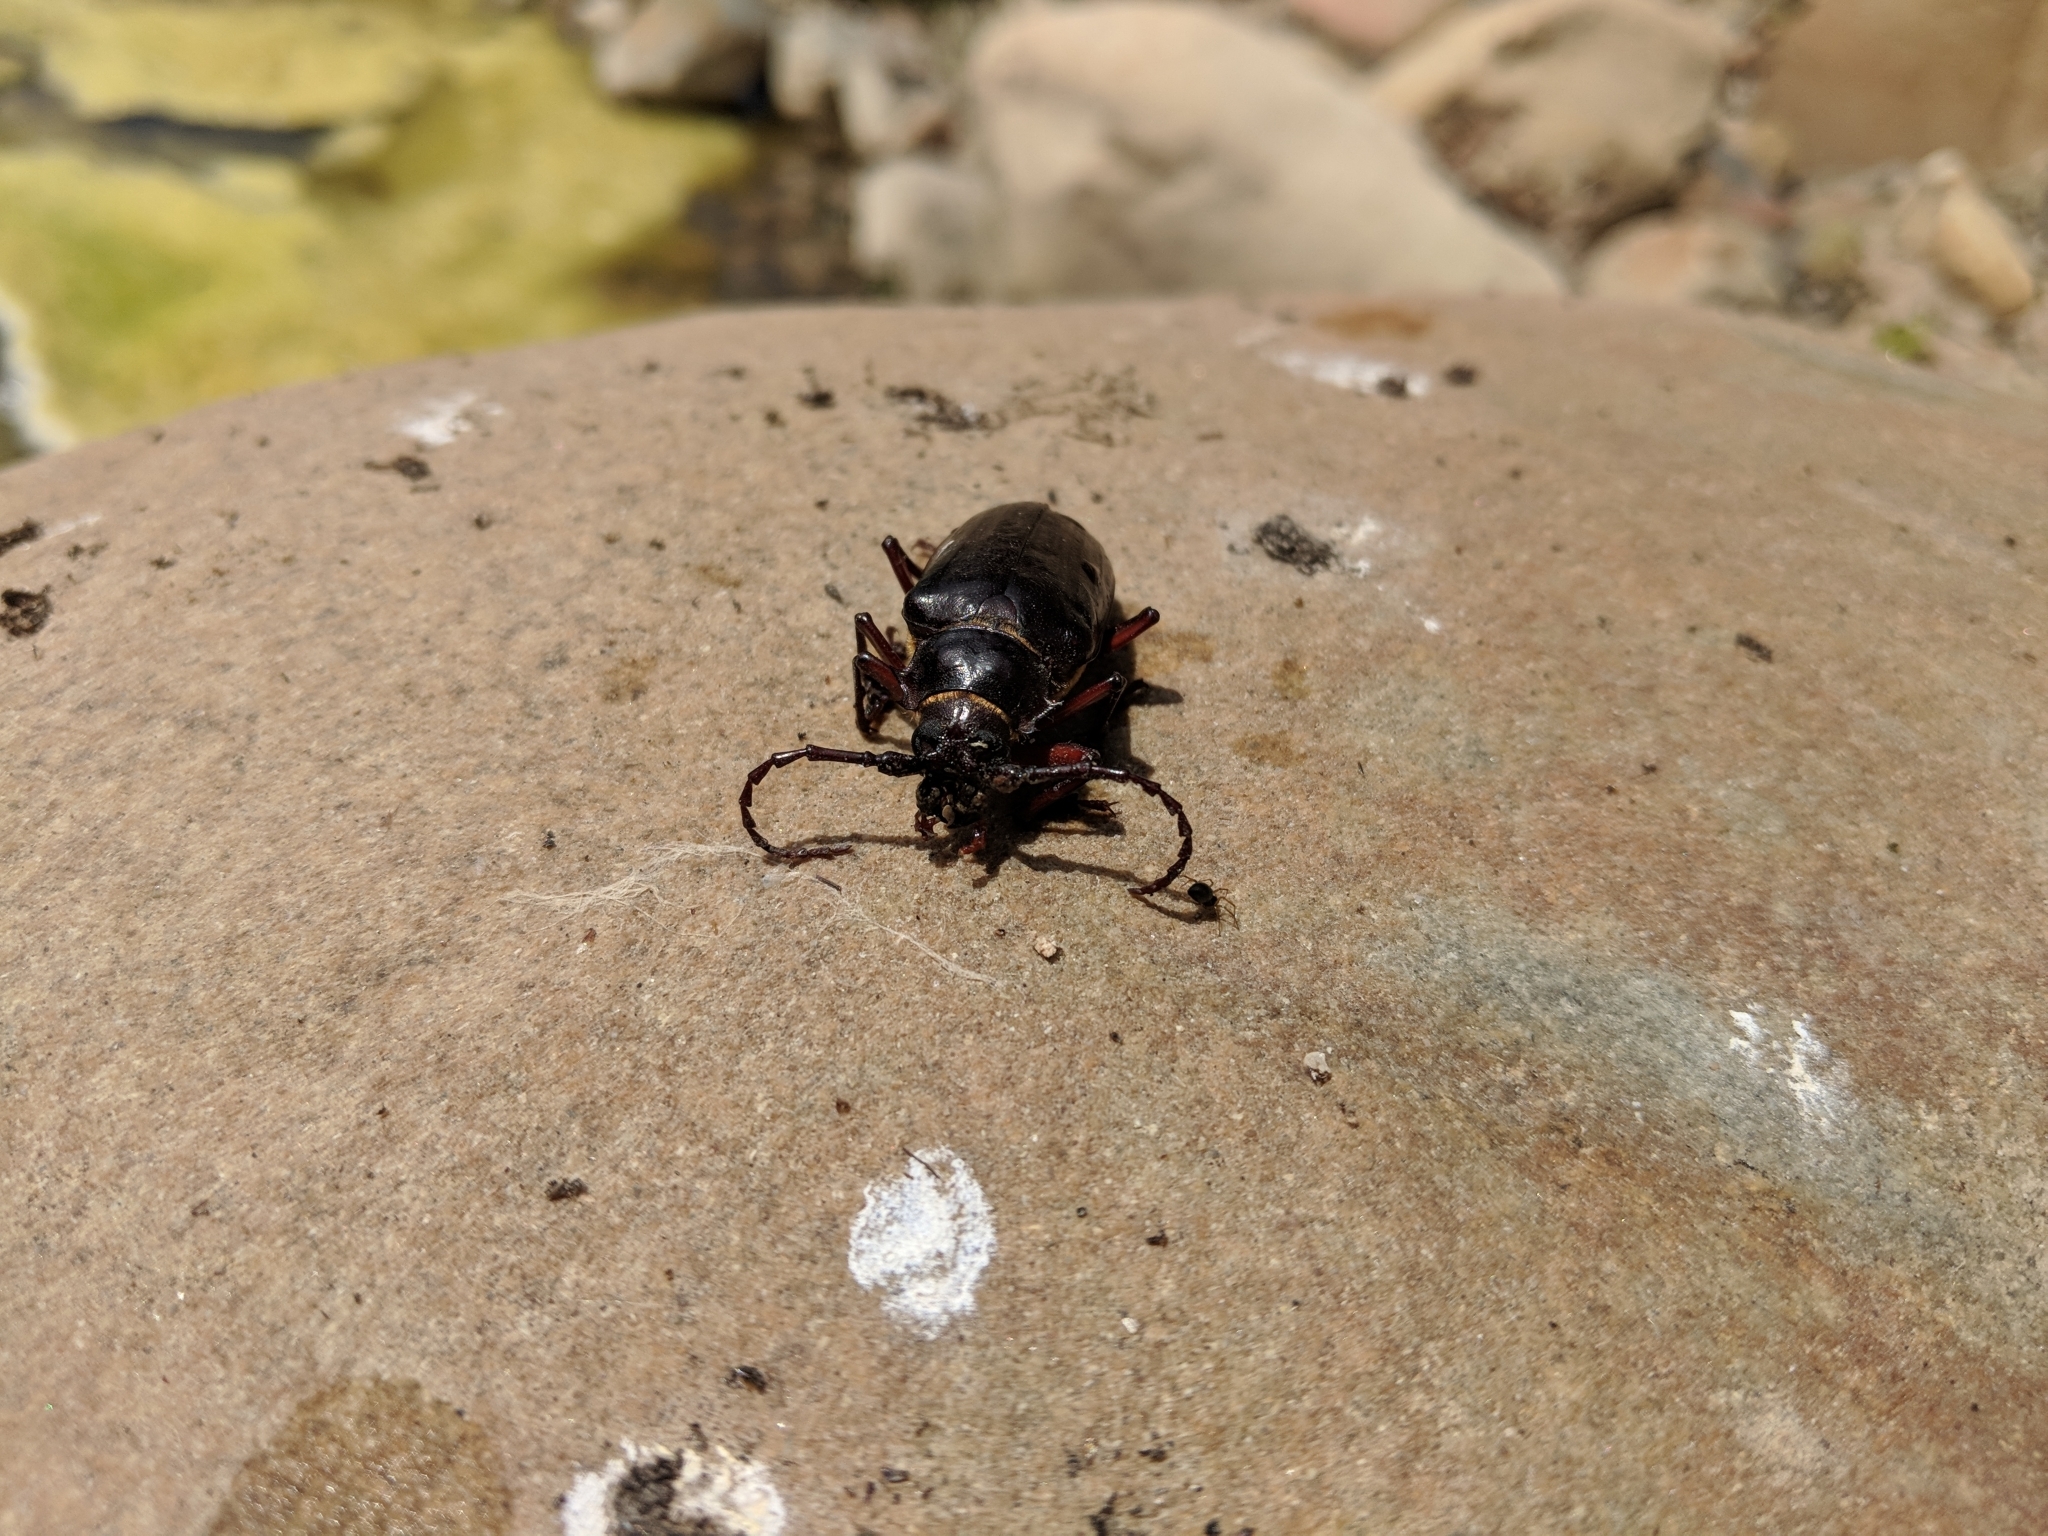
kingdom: Animalia
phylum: Arthropoda
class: Insecta
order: Coleoptera
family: Cerambycidae
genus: Prionus
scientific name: Prionus californicus
